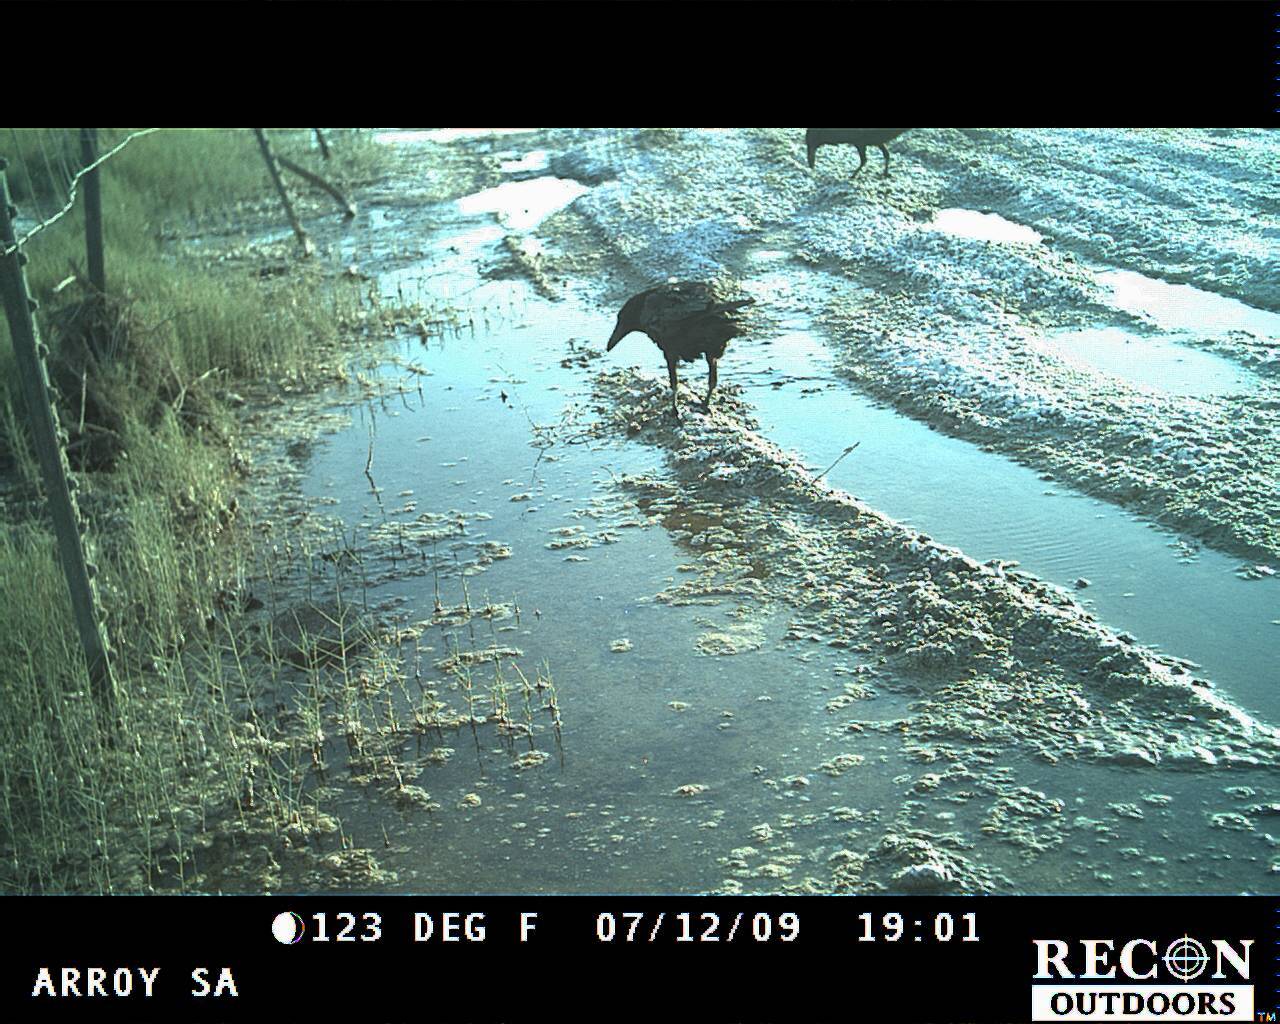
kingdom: Animalia
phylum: Chordata
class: Aves
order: Passeriformes
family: Corvidae
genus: Corvus
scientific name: Corvus corax
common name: Common raven
